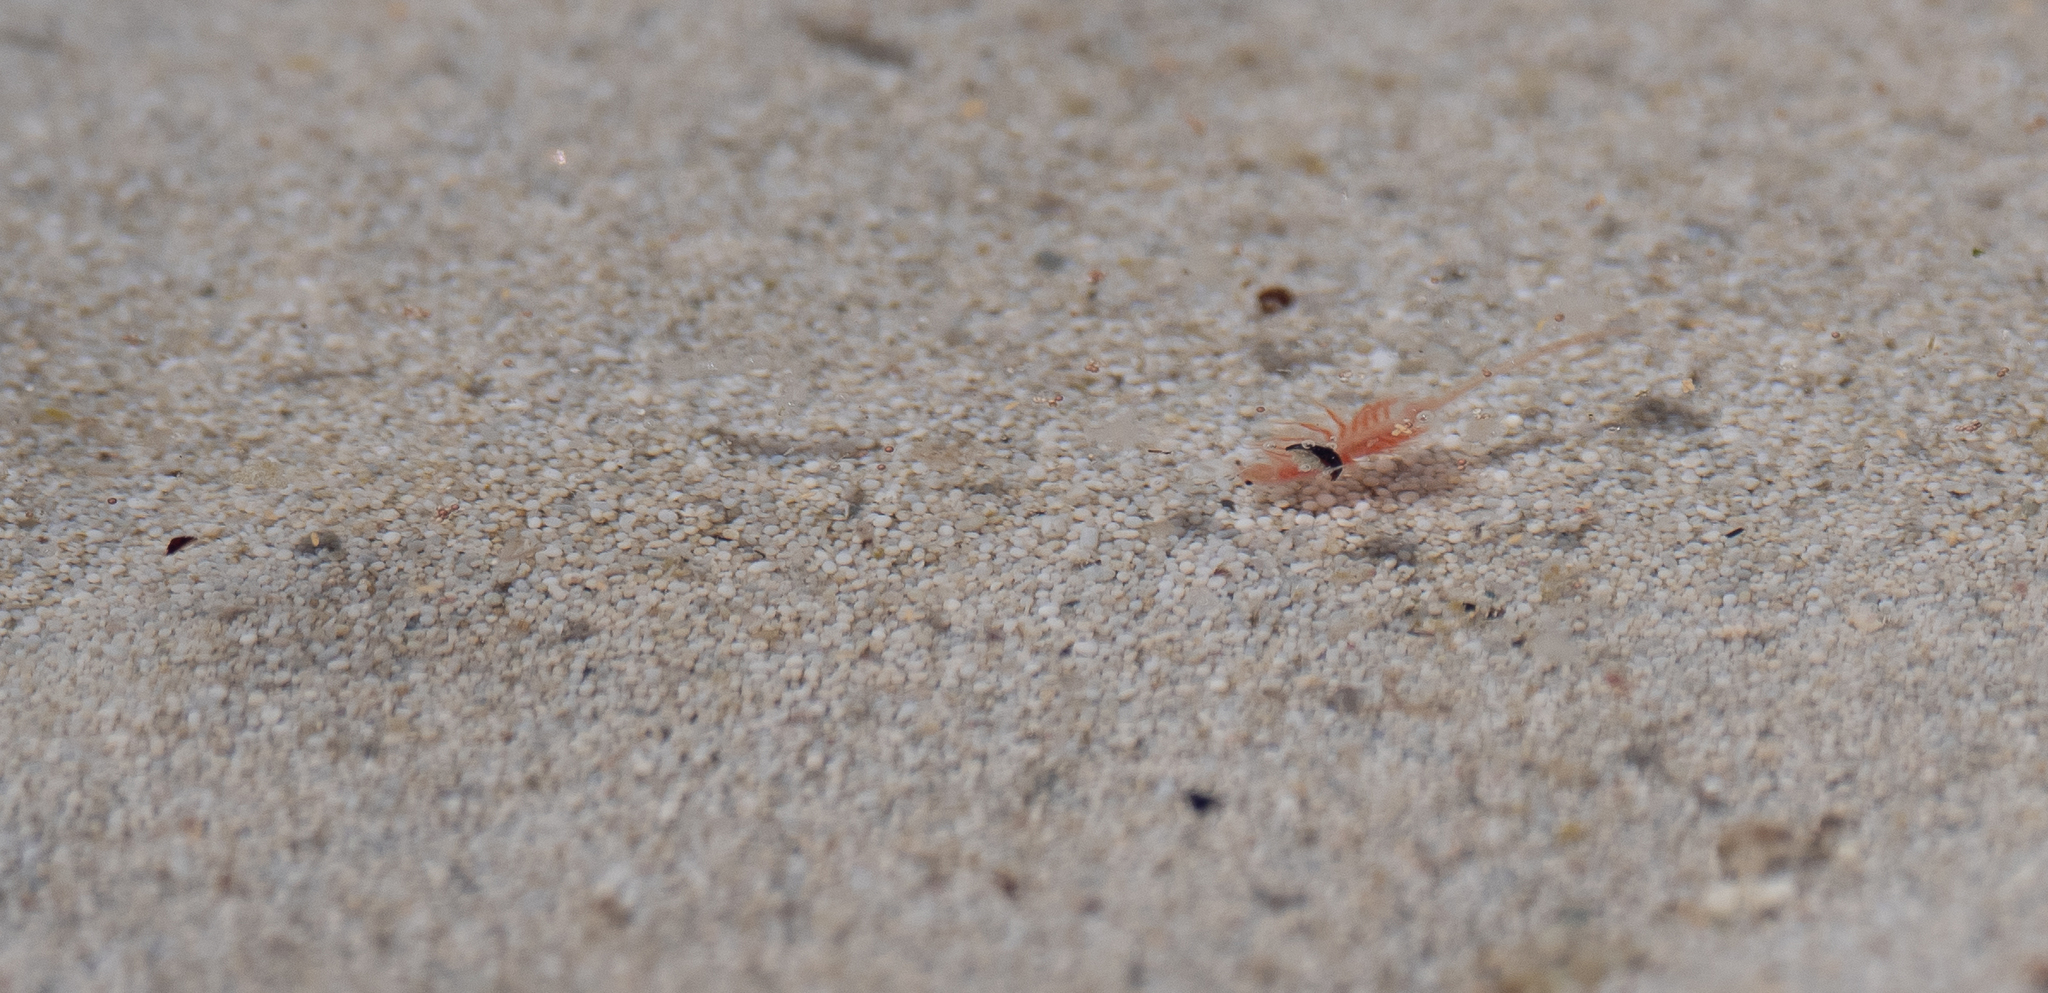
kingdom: Animalia
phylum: Arthropoda
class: Branchiopoda
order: Anostraca
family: Artemiidae
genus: Artemia
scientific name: Artemia monica
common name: Mono lake brine shrimp
